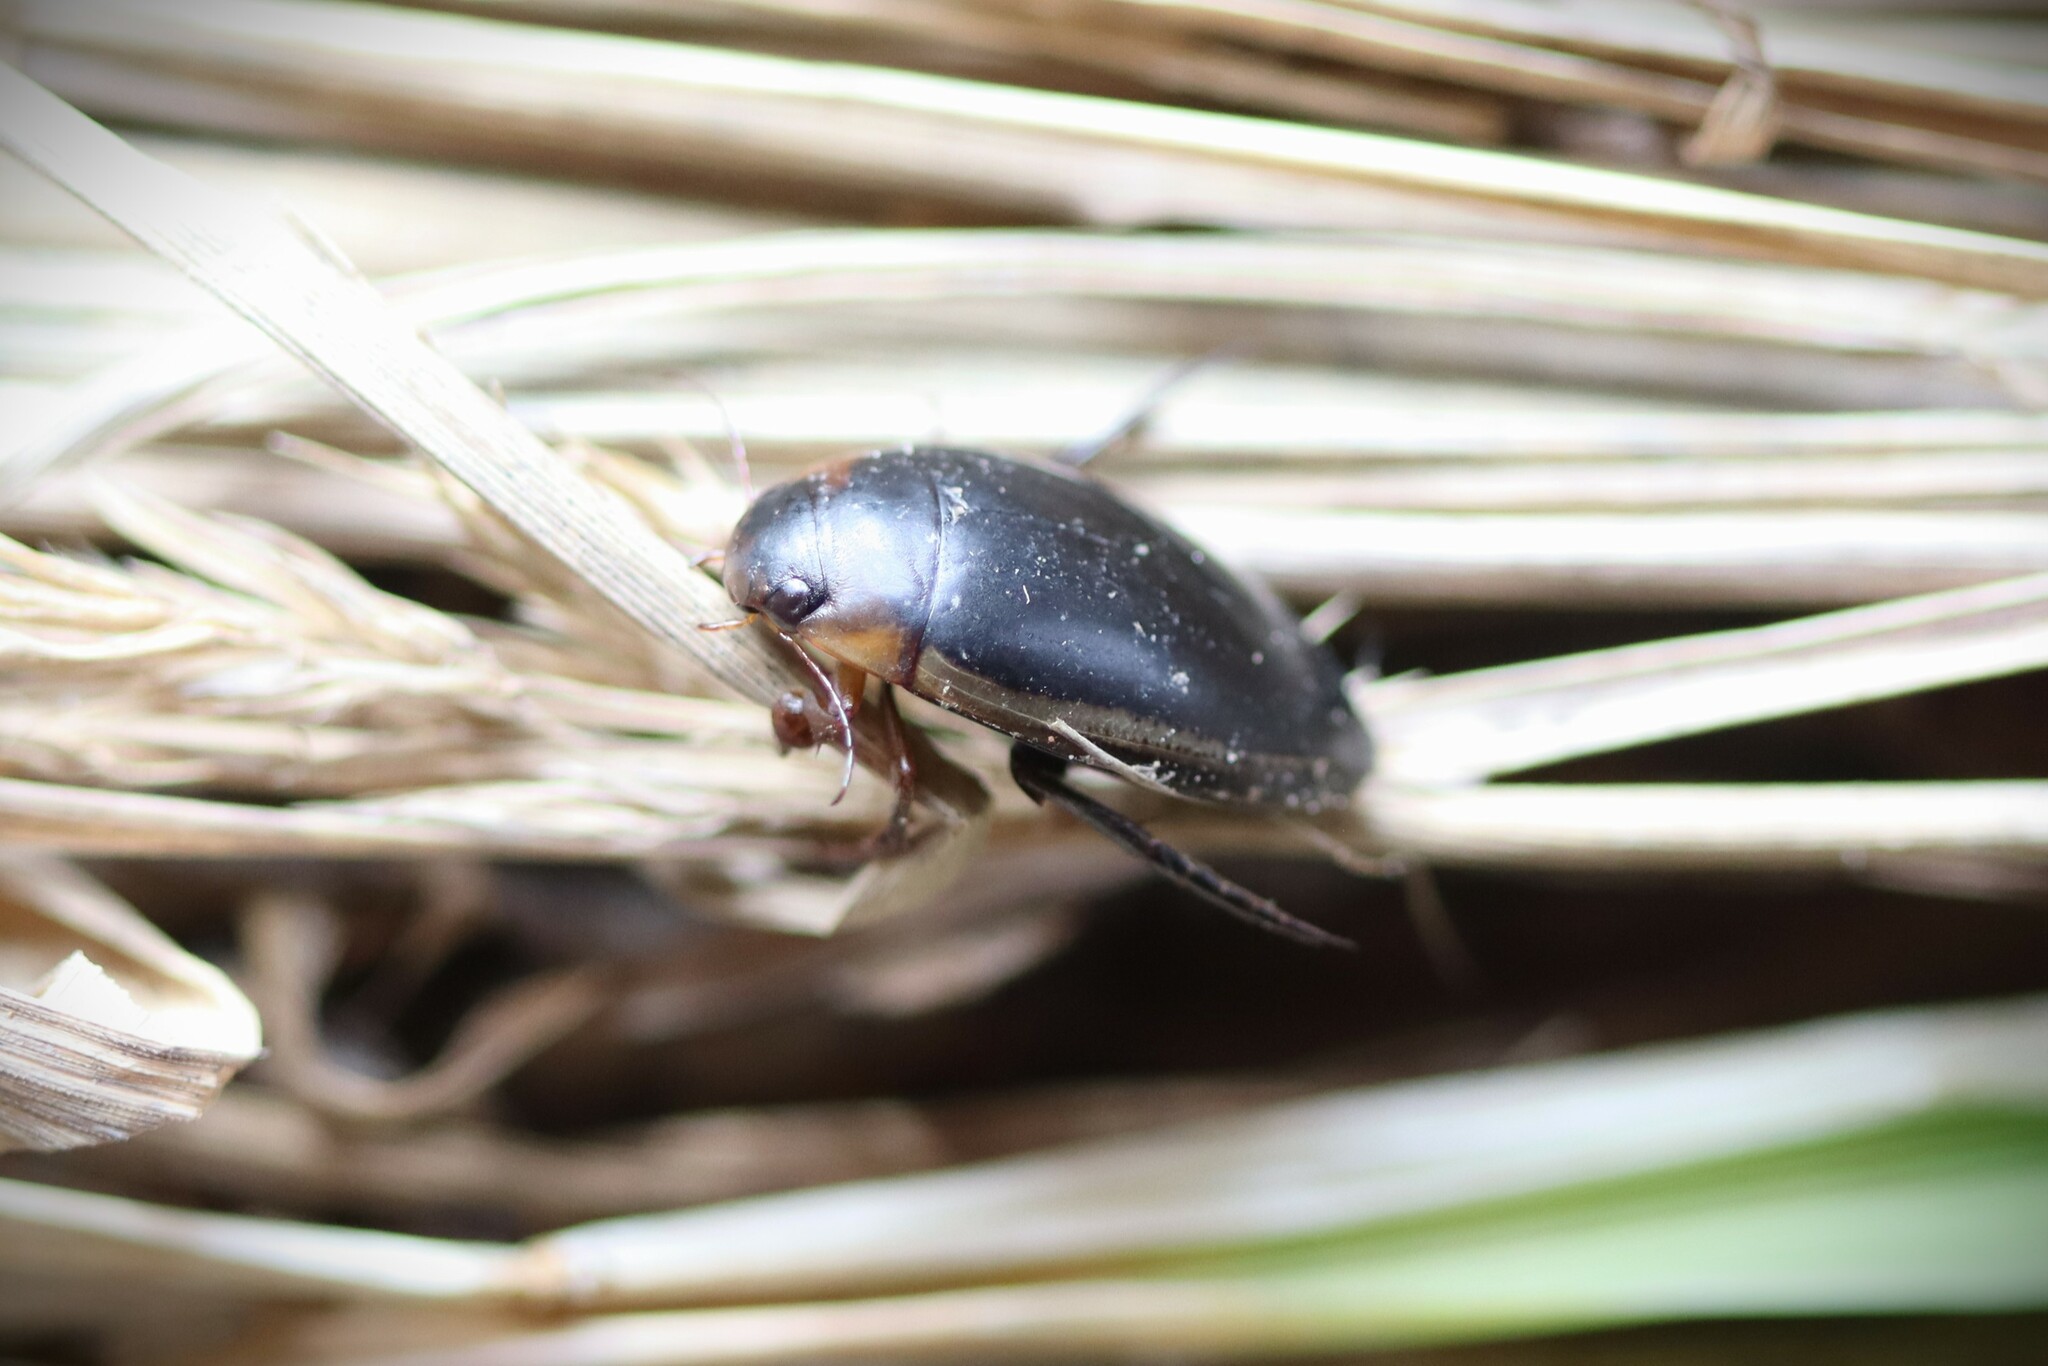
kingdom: Animalia
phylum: Arthropoda
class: Insecta
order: Coleoptera
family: Dytiscidae
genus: Hydaticus
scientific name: Hydaticus seminiger
